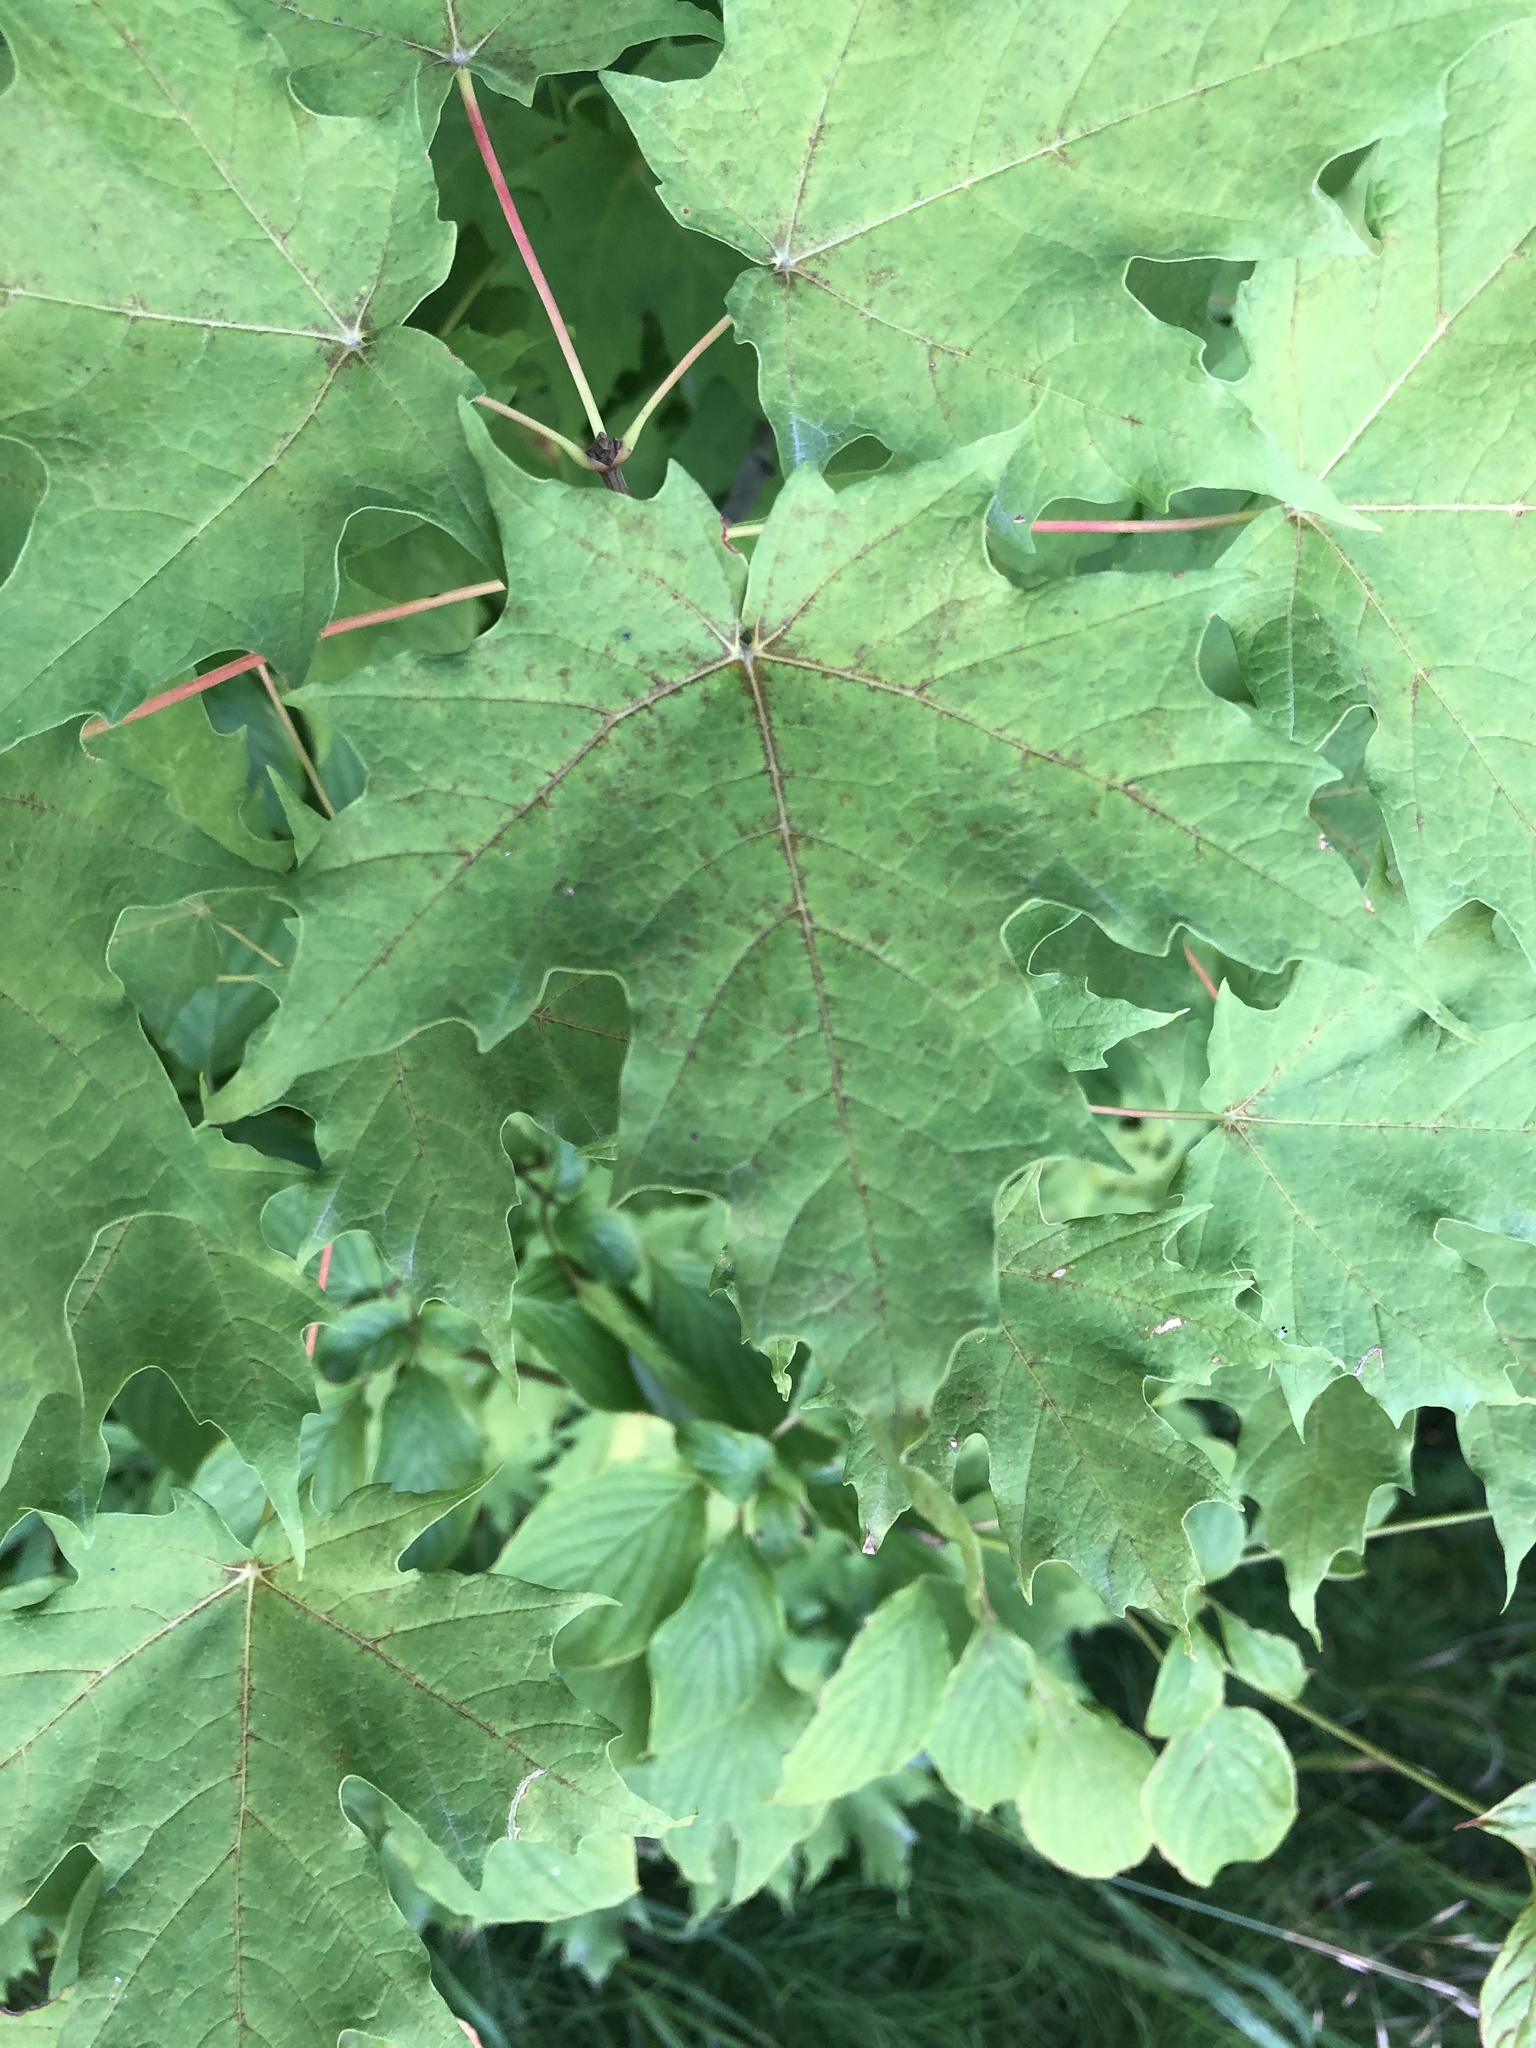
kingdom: Plantae
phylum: Tracheophyta
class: Magnoliopsida
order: Sapindales
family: Sapindaceae
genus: Acer
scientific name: Acer platanoides
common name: Norway maple
